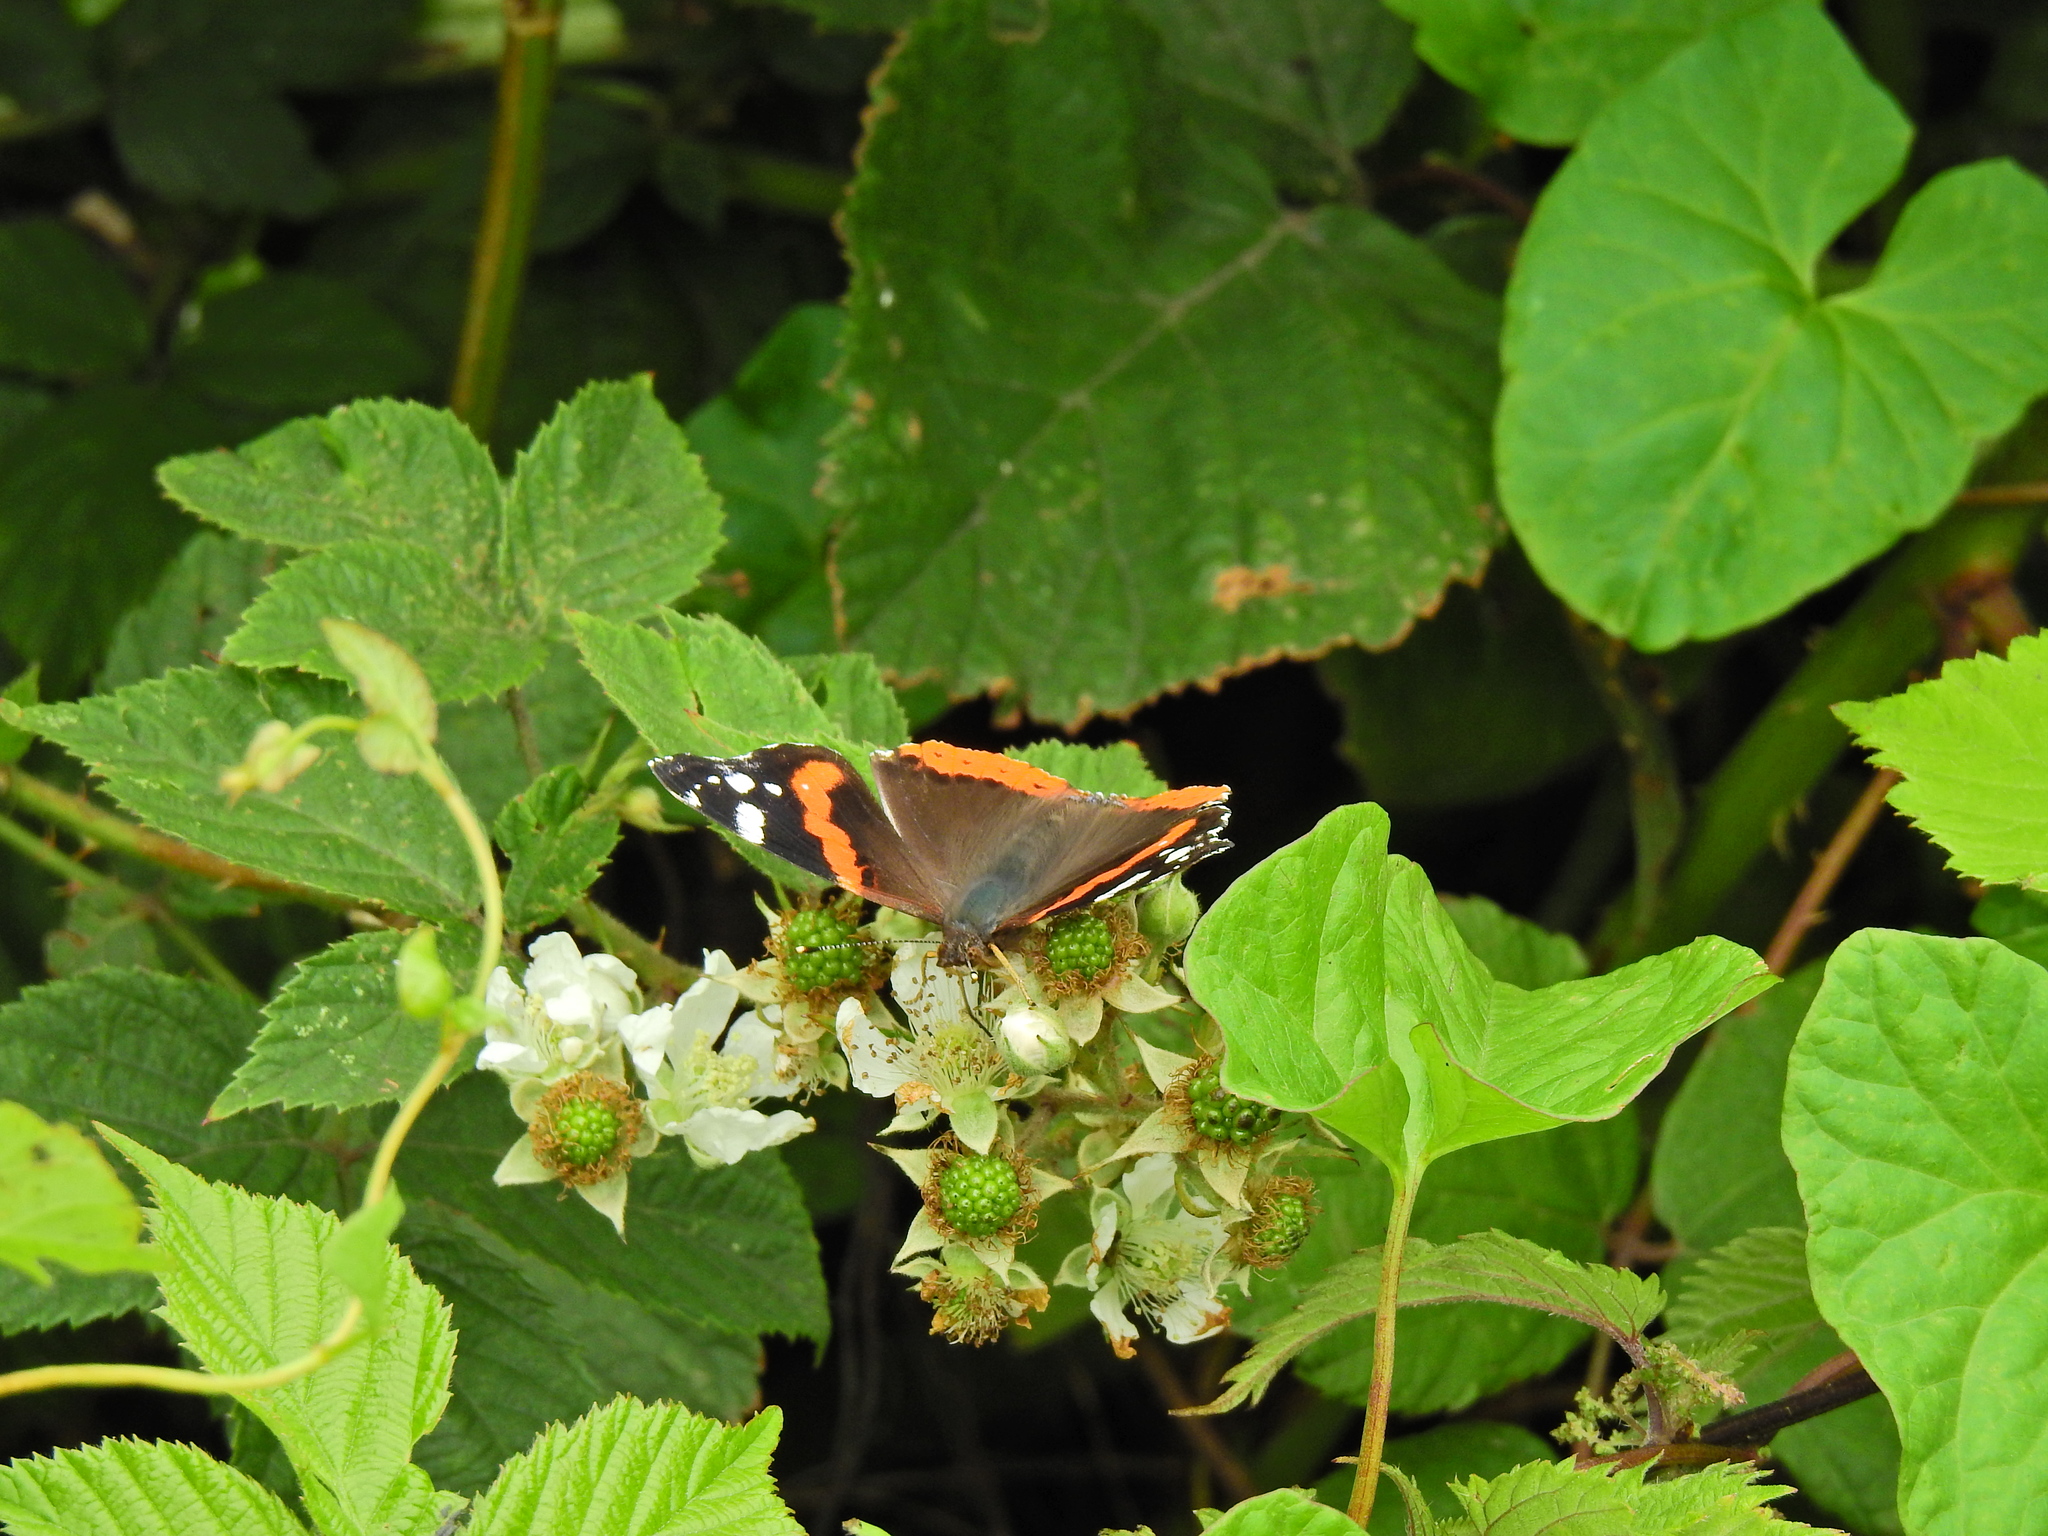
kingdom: Animalia
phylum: Arthropoda
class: Insecta
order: Lepidoptera
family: Nymphalidae
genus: Vanessa
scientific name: Vanessa atalanta
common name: Red admiral
